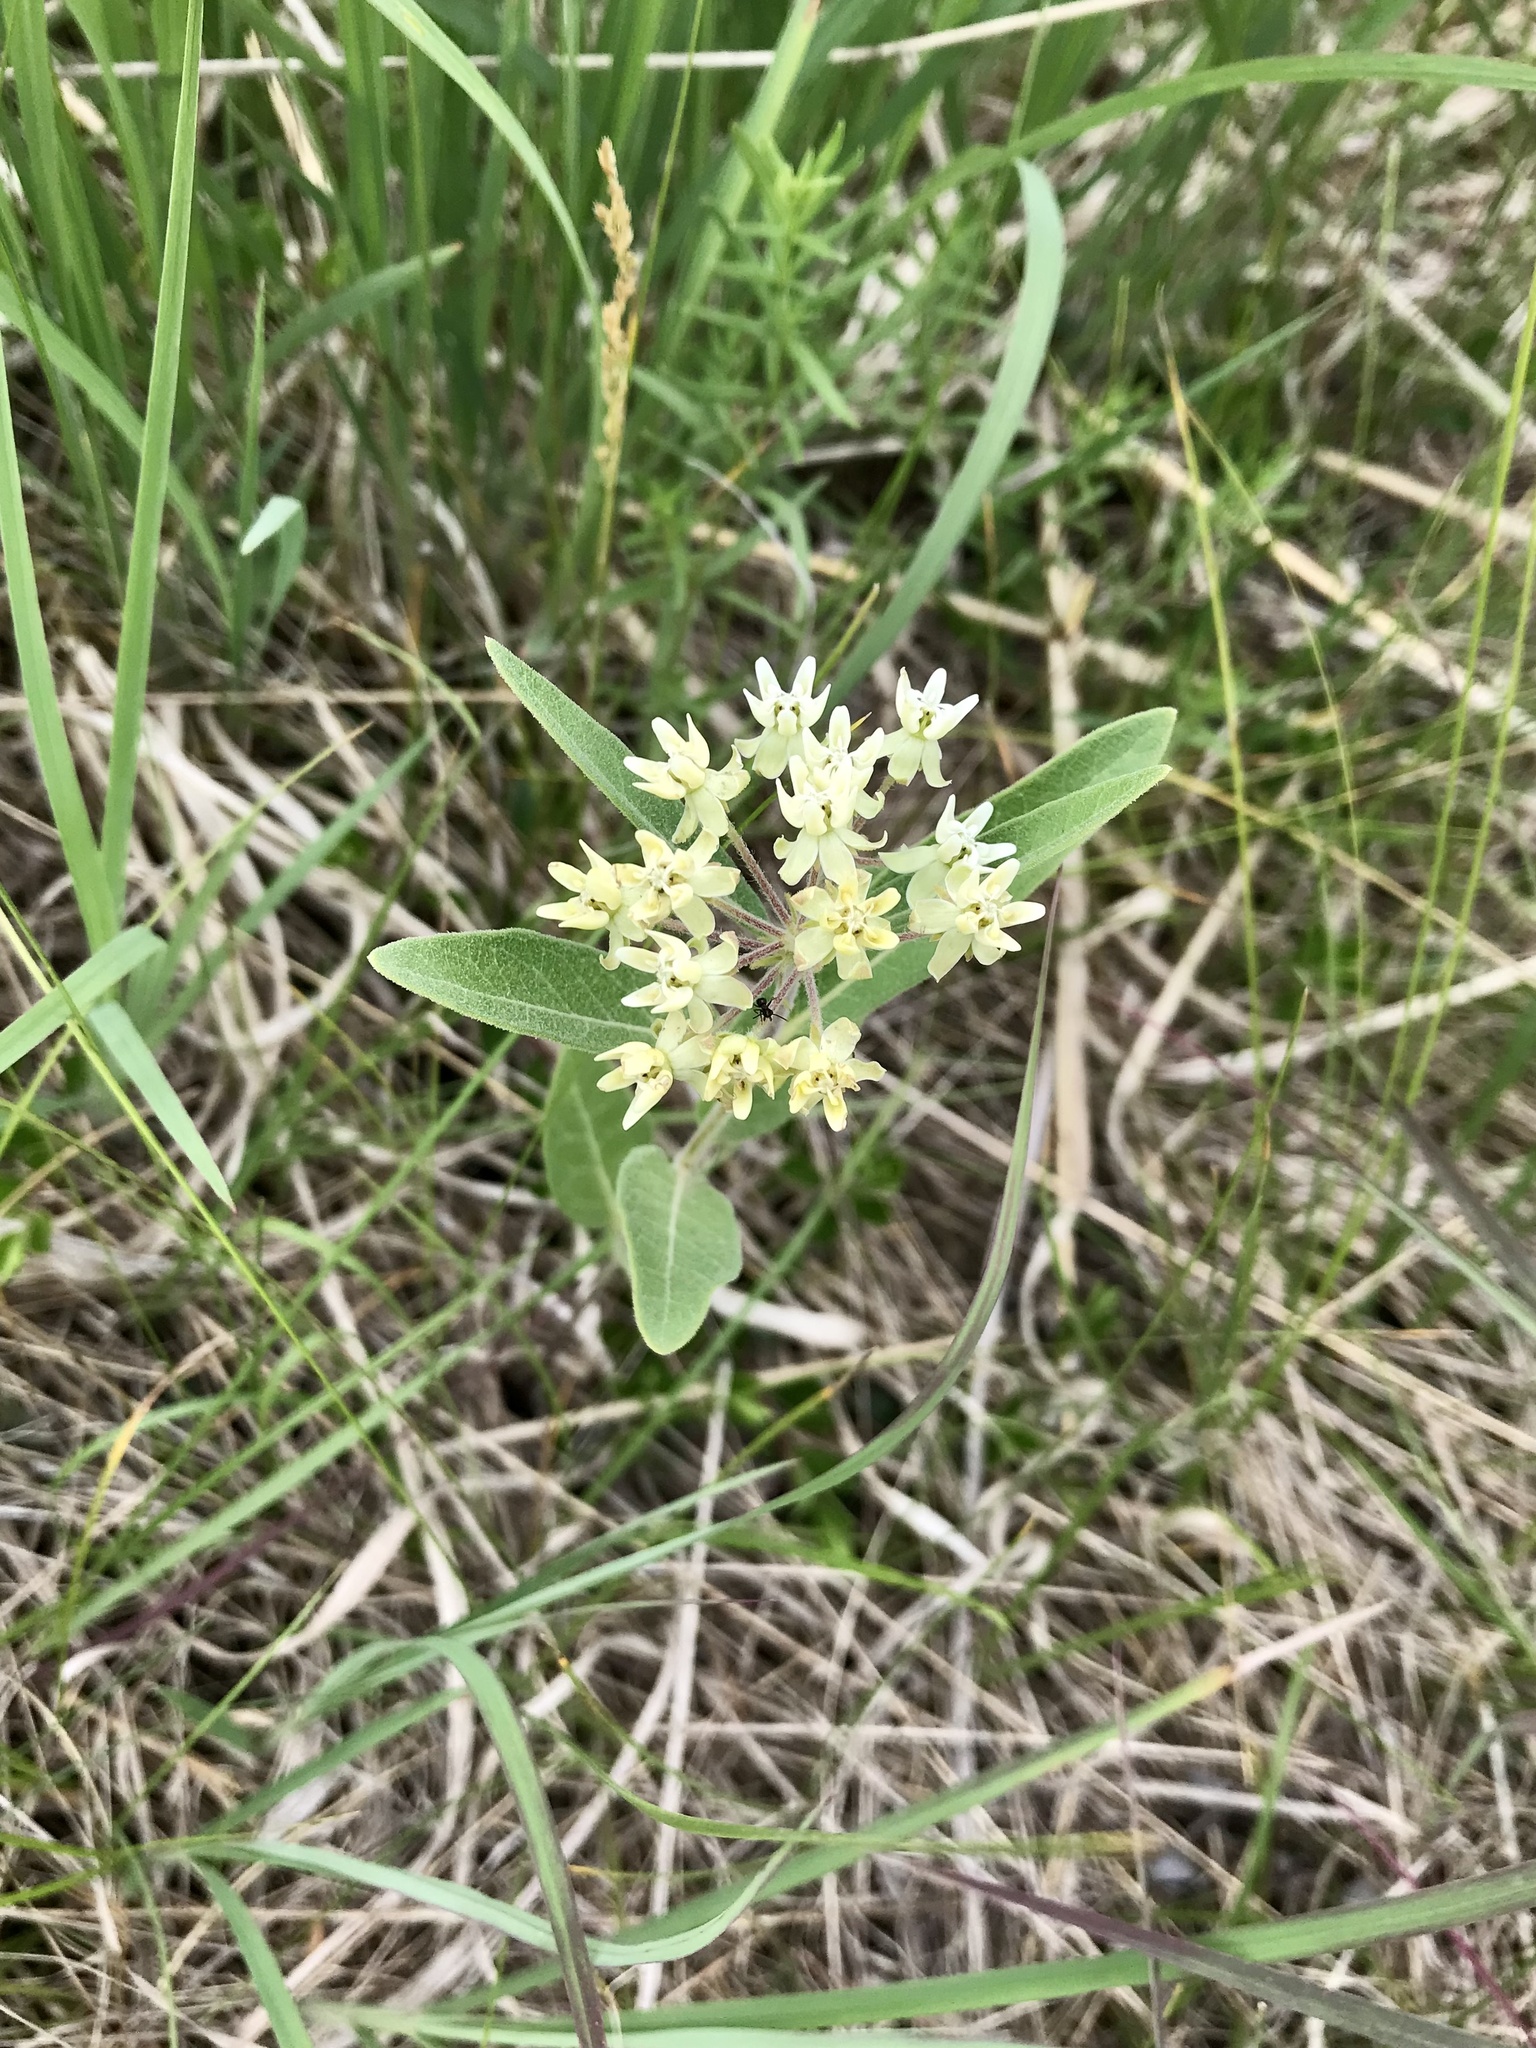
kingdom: Plantae
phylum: Tracheophyta
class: Magnoliopsida
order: Gentianales
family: Apocynaceae
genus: Asclepias
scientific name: Asclepias ovalifolia
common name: Dwarf milkweed
